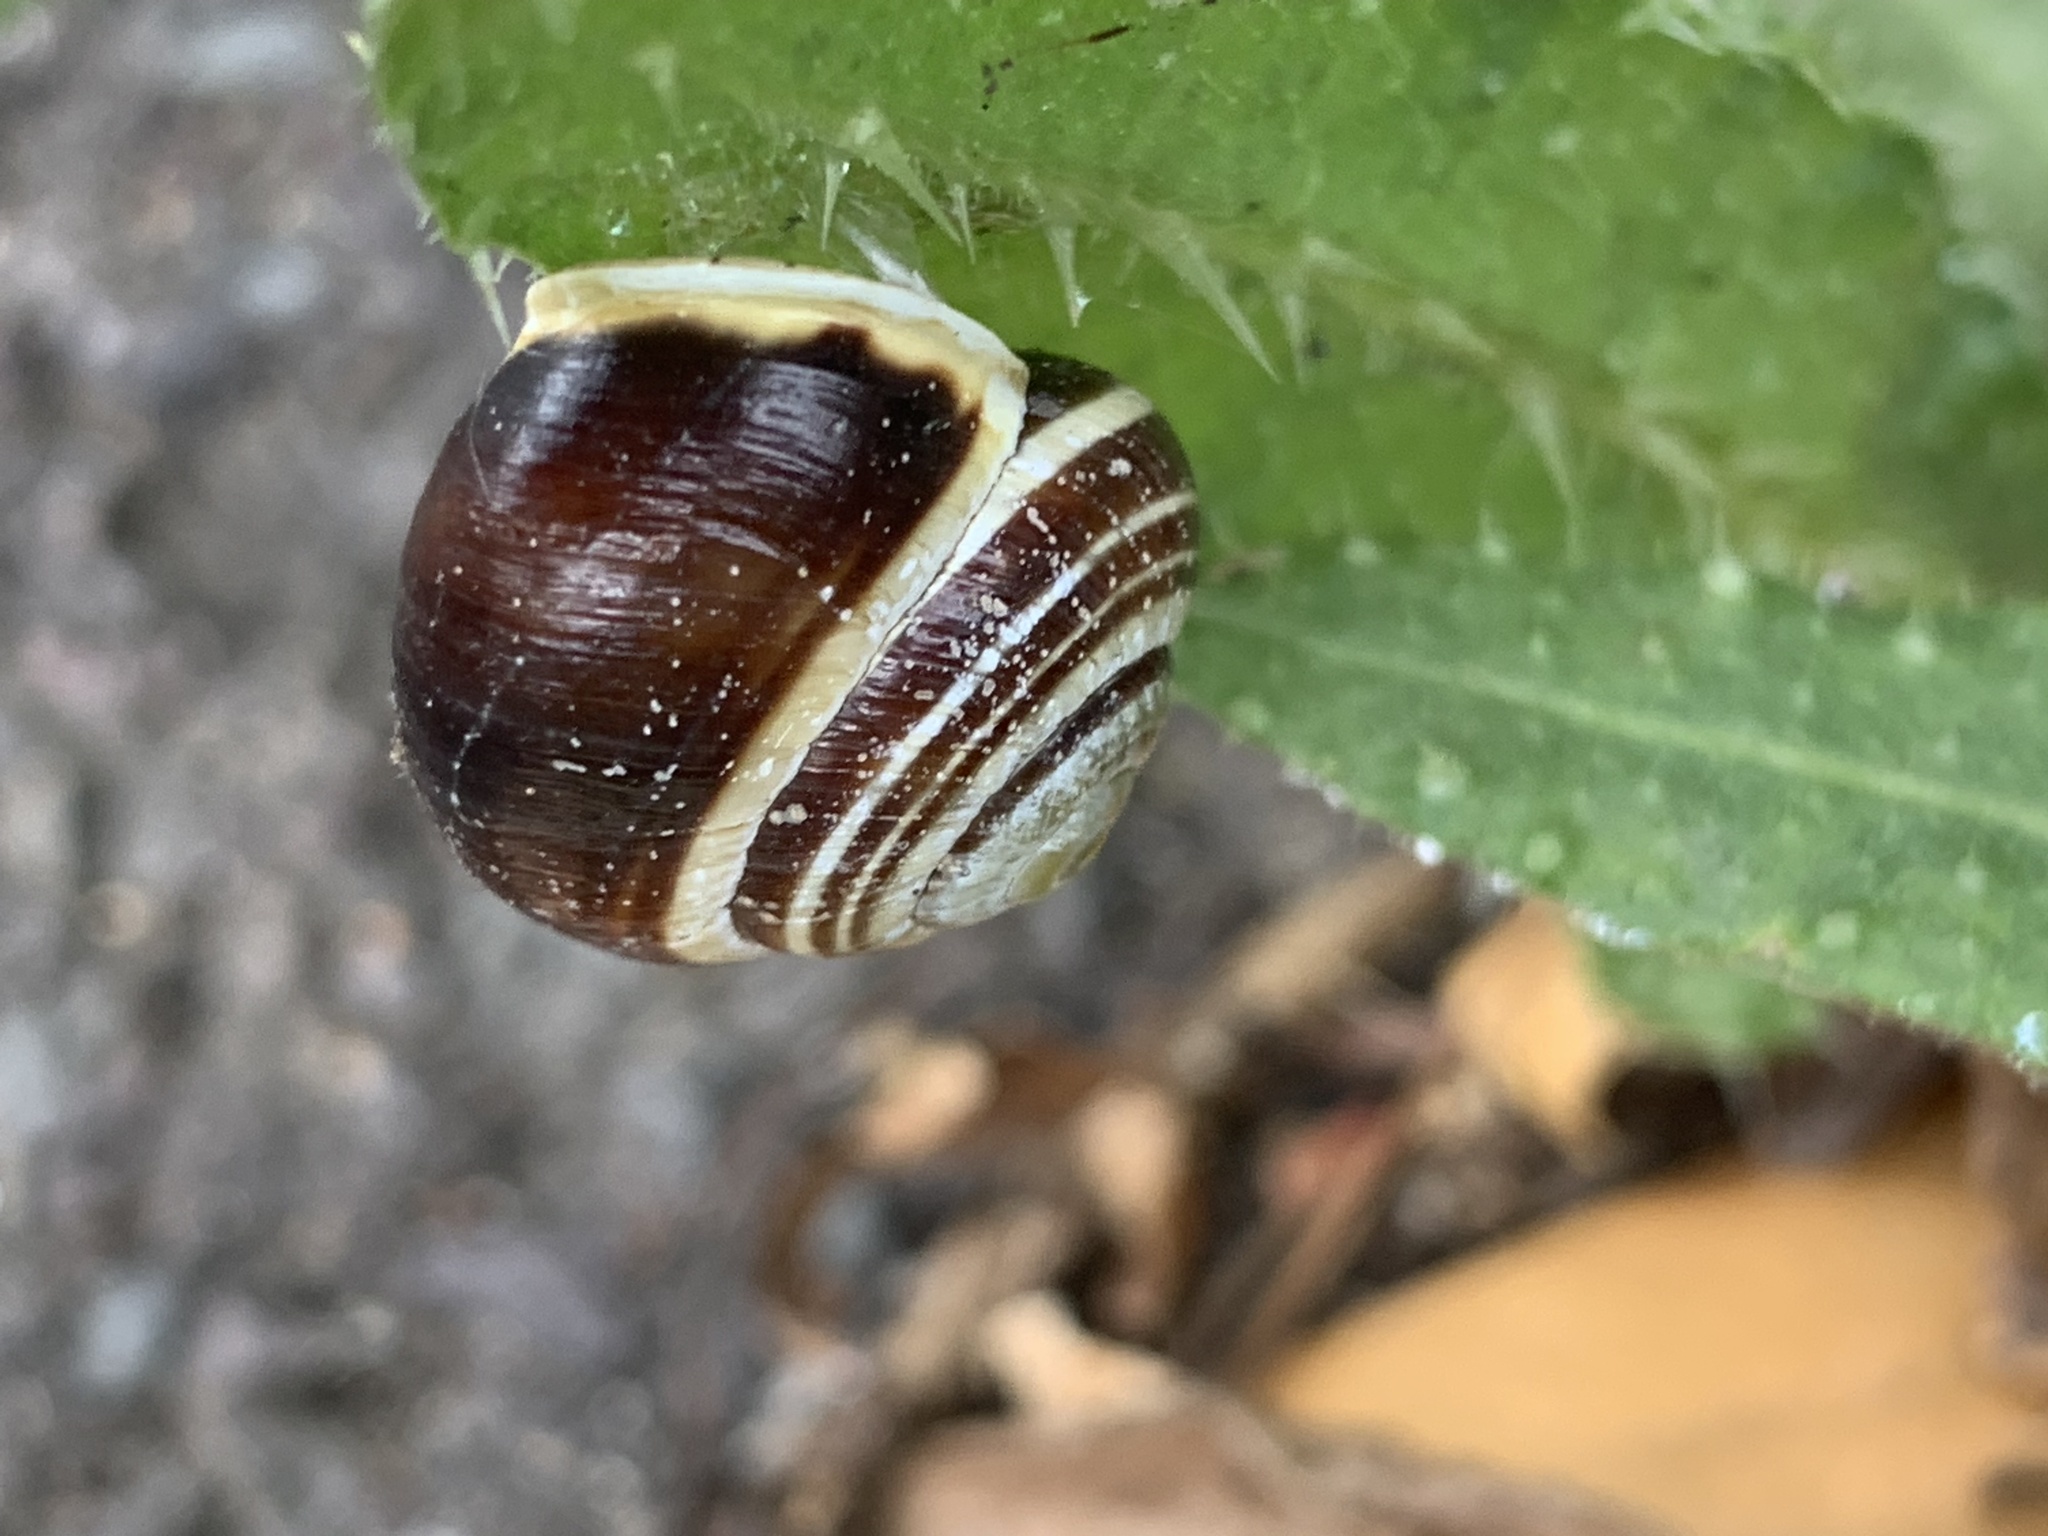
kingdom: Animalia
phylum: Mollusca
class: Gastropoda
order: Stylommatophora
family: Helicidae
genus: Cepaea
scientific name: Cepaea hortensis
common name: White-lip gardensnail
